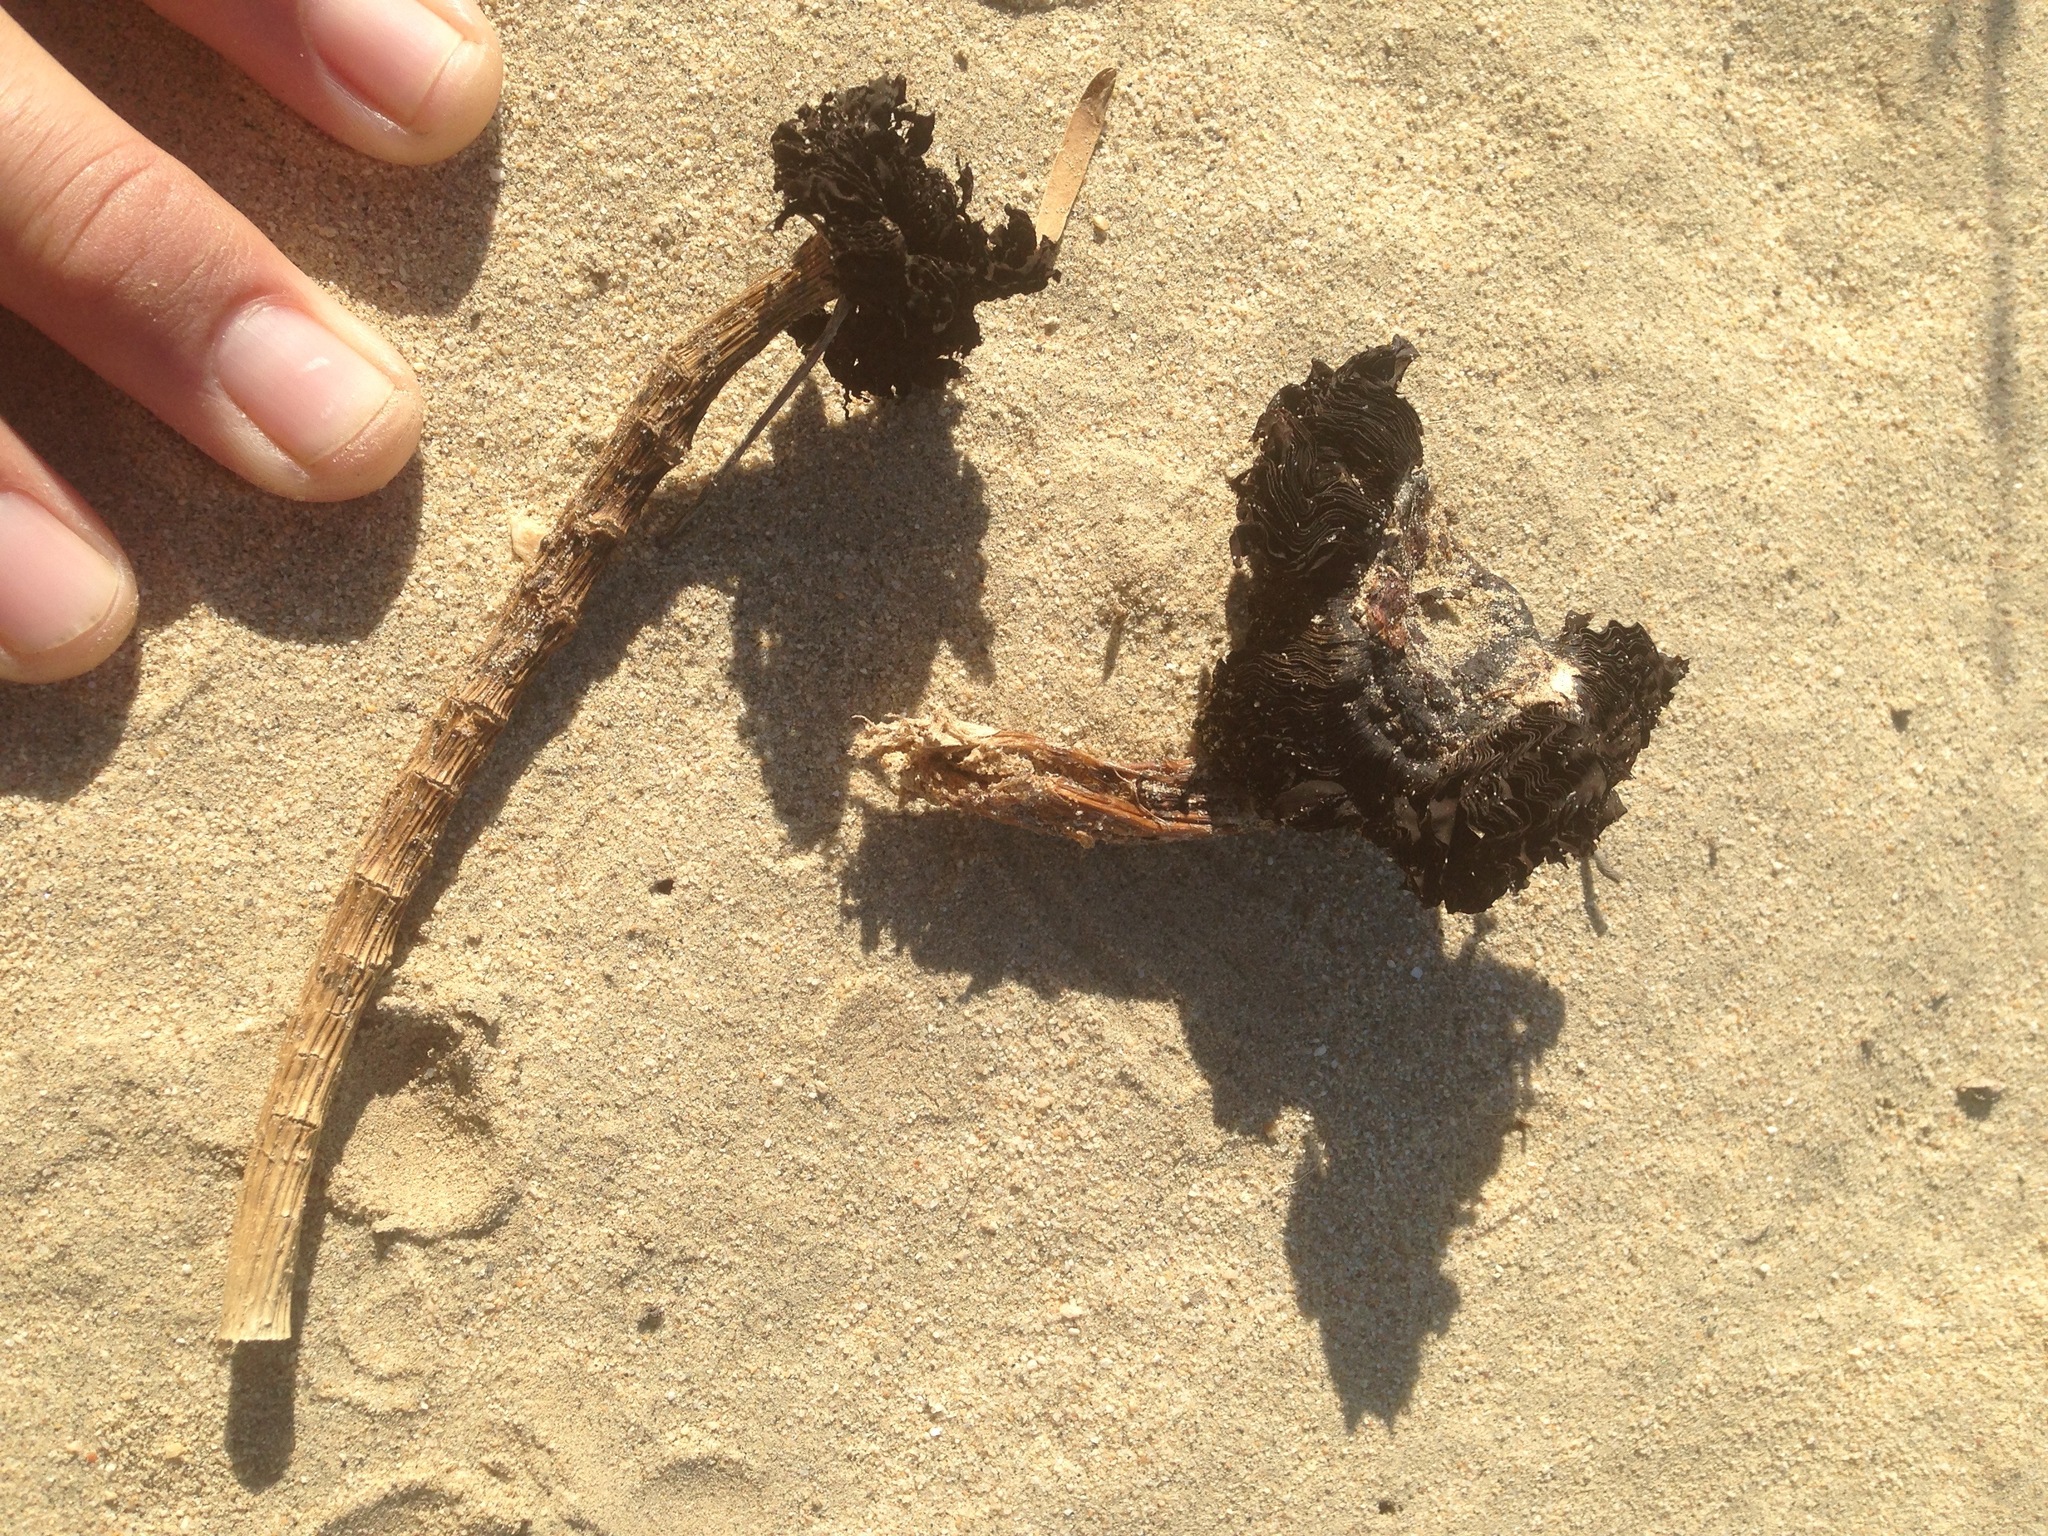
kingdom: Fungi
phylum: Basidiomycota
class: Agaricomycetes
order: Agaricales
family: Agaricaceae
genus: Montagnea
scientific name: Montagnea arenaria
